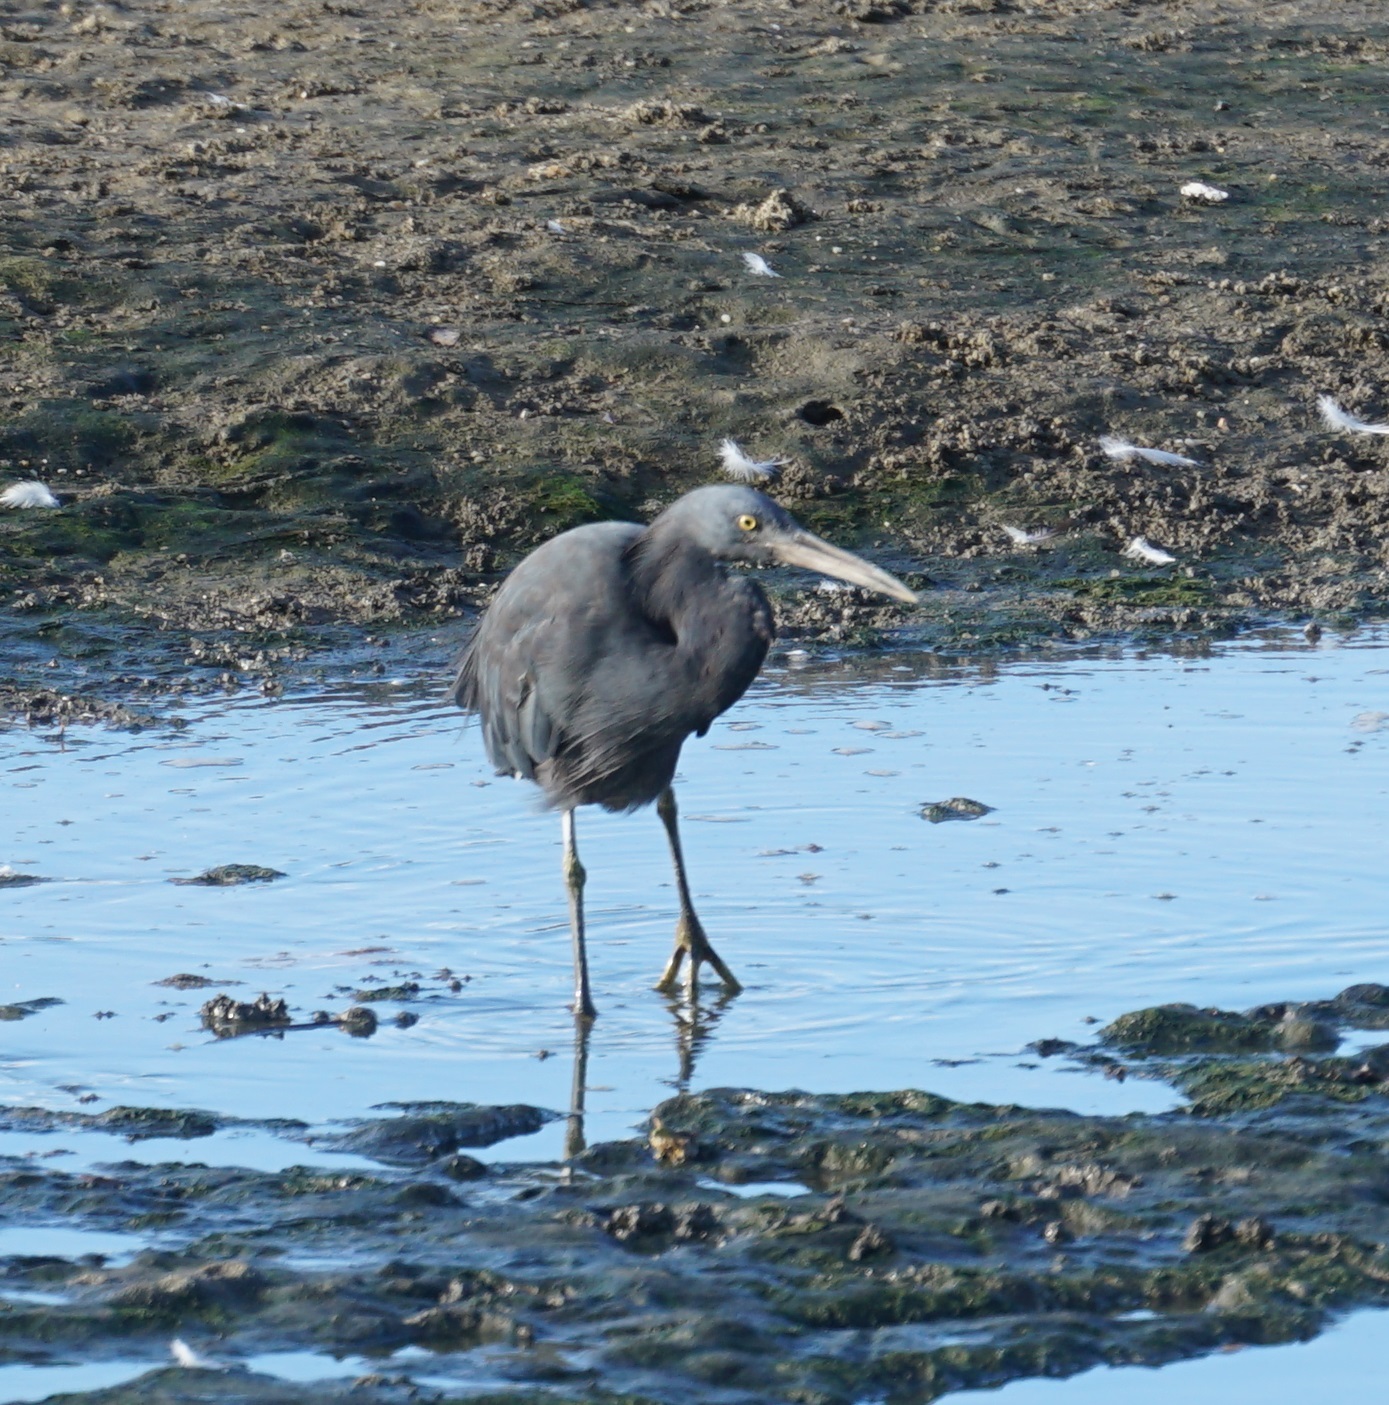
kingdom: Animalia
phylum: Chordata
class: Aves
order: Pelecaniformes
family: Ardeidae
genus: Egretta
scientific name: Egretta sacra
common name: Pacific reef heron
